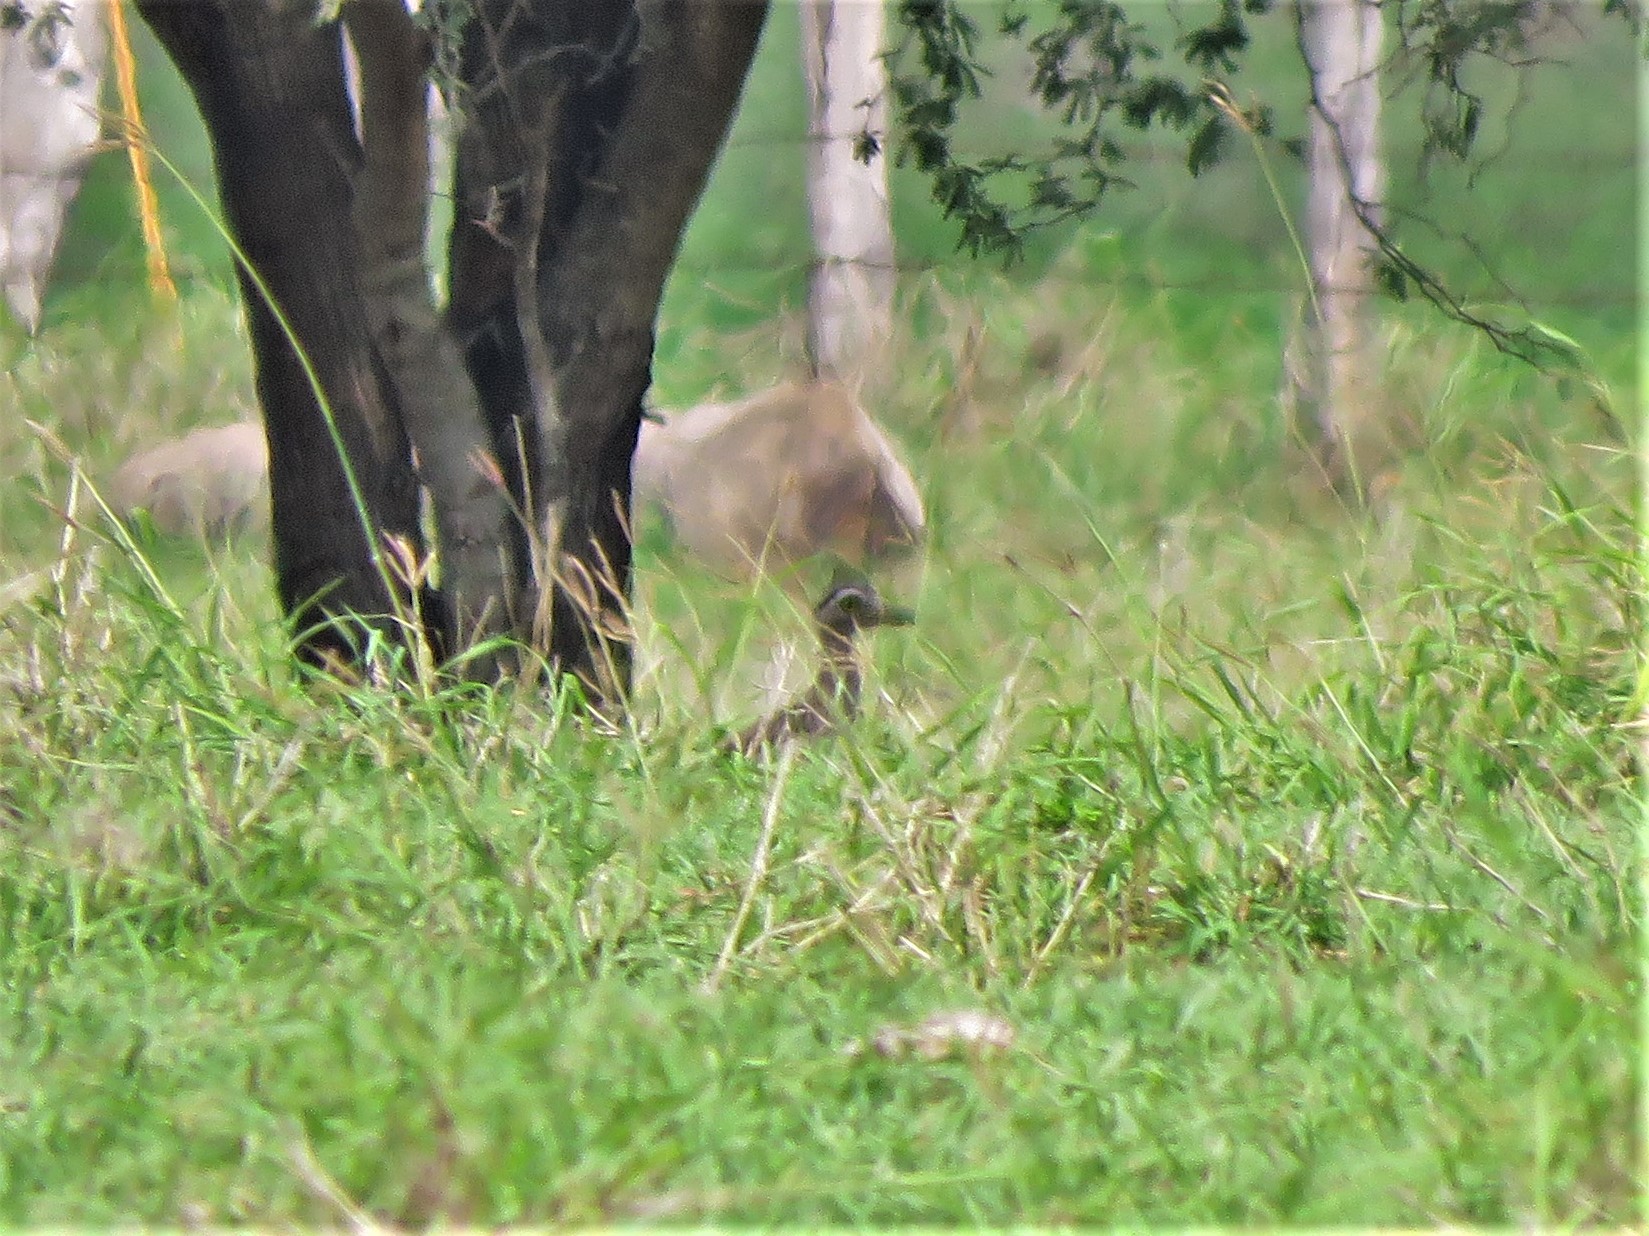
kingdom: Animalia
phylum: Chordata
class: Aves
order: Charadriiformes
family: Burhinidae
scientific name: Burhinidae
